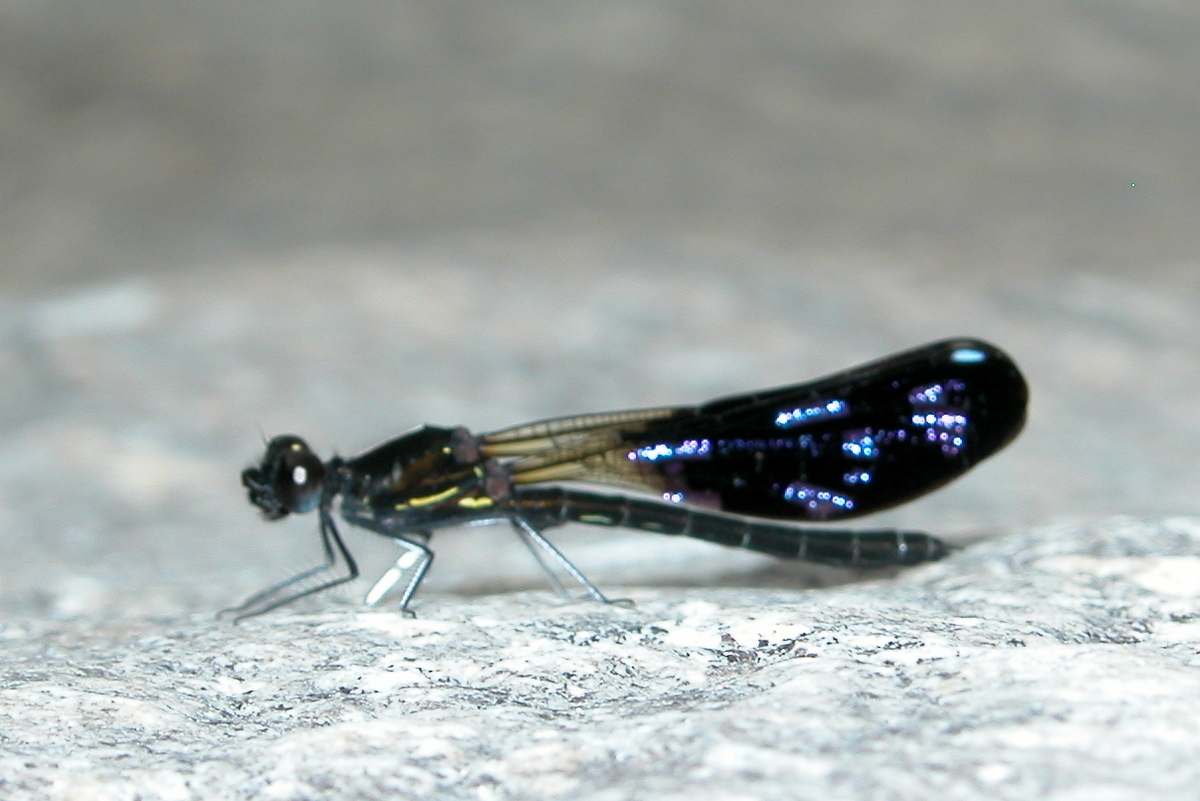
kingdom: Animalia
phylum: Arthropoda
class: Insecta
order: Odonata
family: Chlorocyphidae
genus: Aristocypha
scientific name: Aristocypha quadrimaculata
